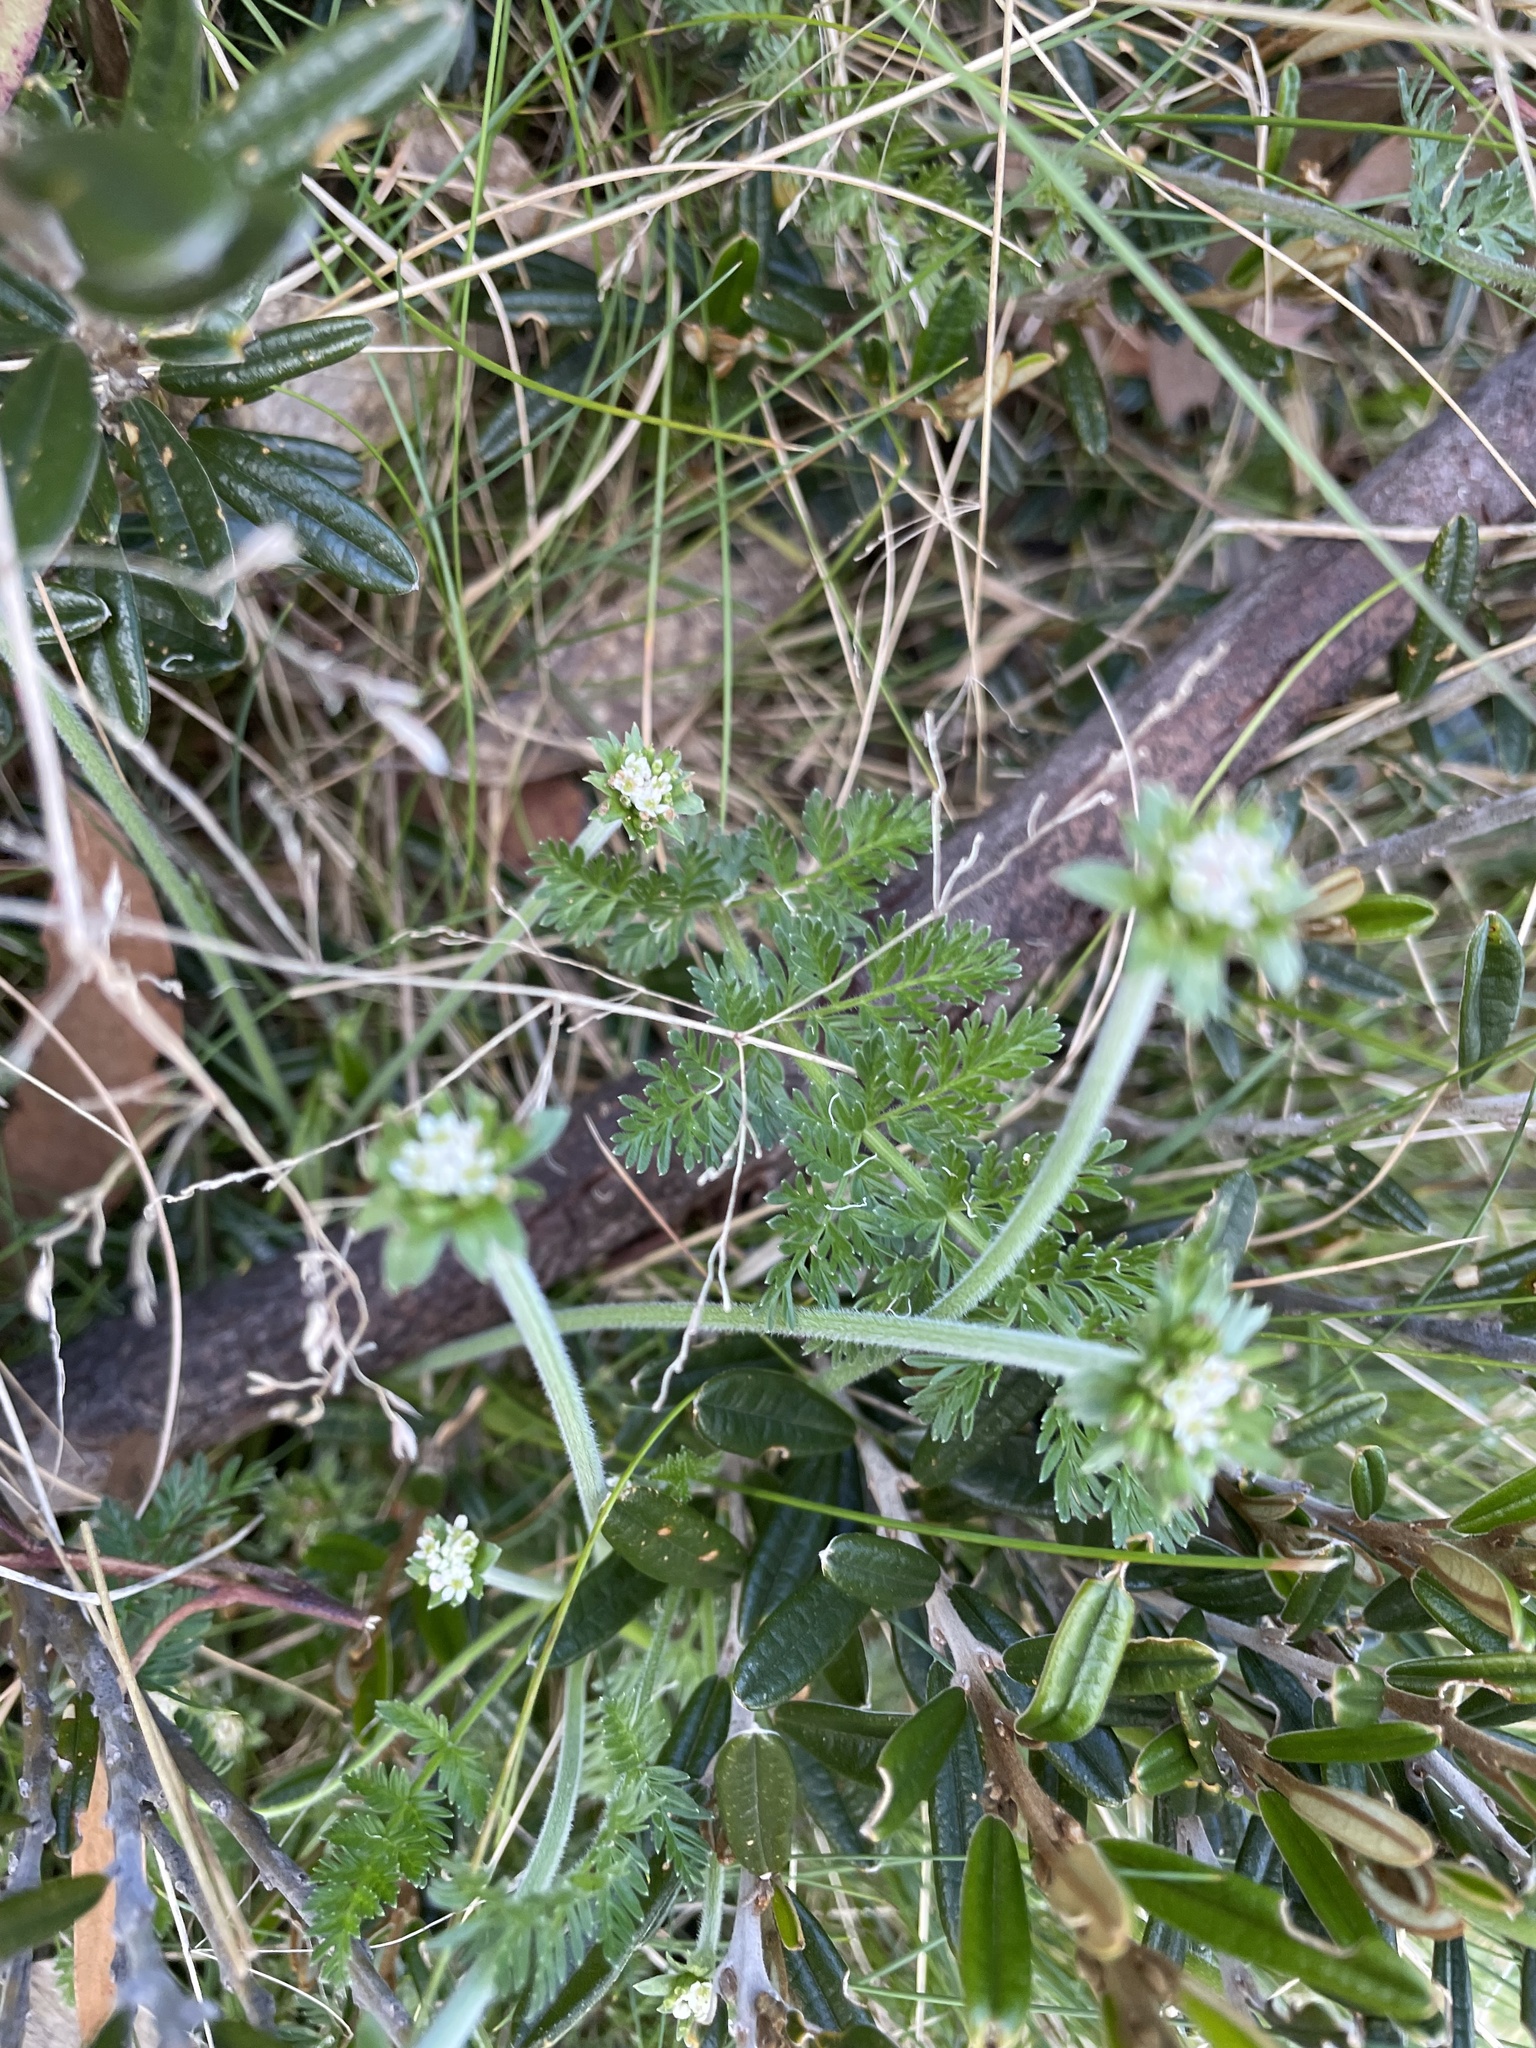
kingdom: Plantae
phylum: Tracheophyta
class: Magnoliopsida
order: Apiales
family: Apiaceae
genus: Chaerophyllum
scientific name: Chaerophyllum eriopodum
